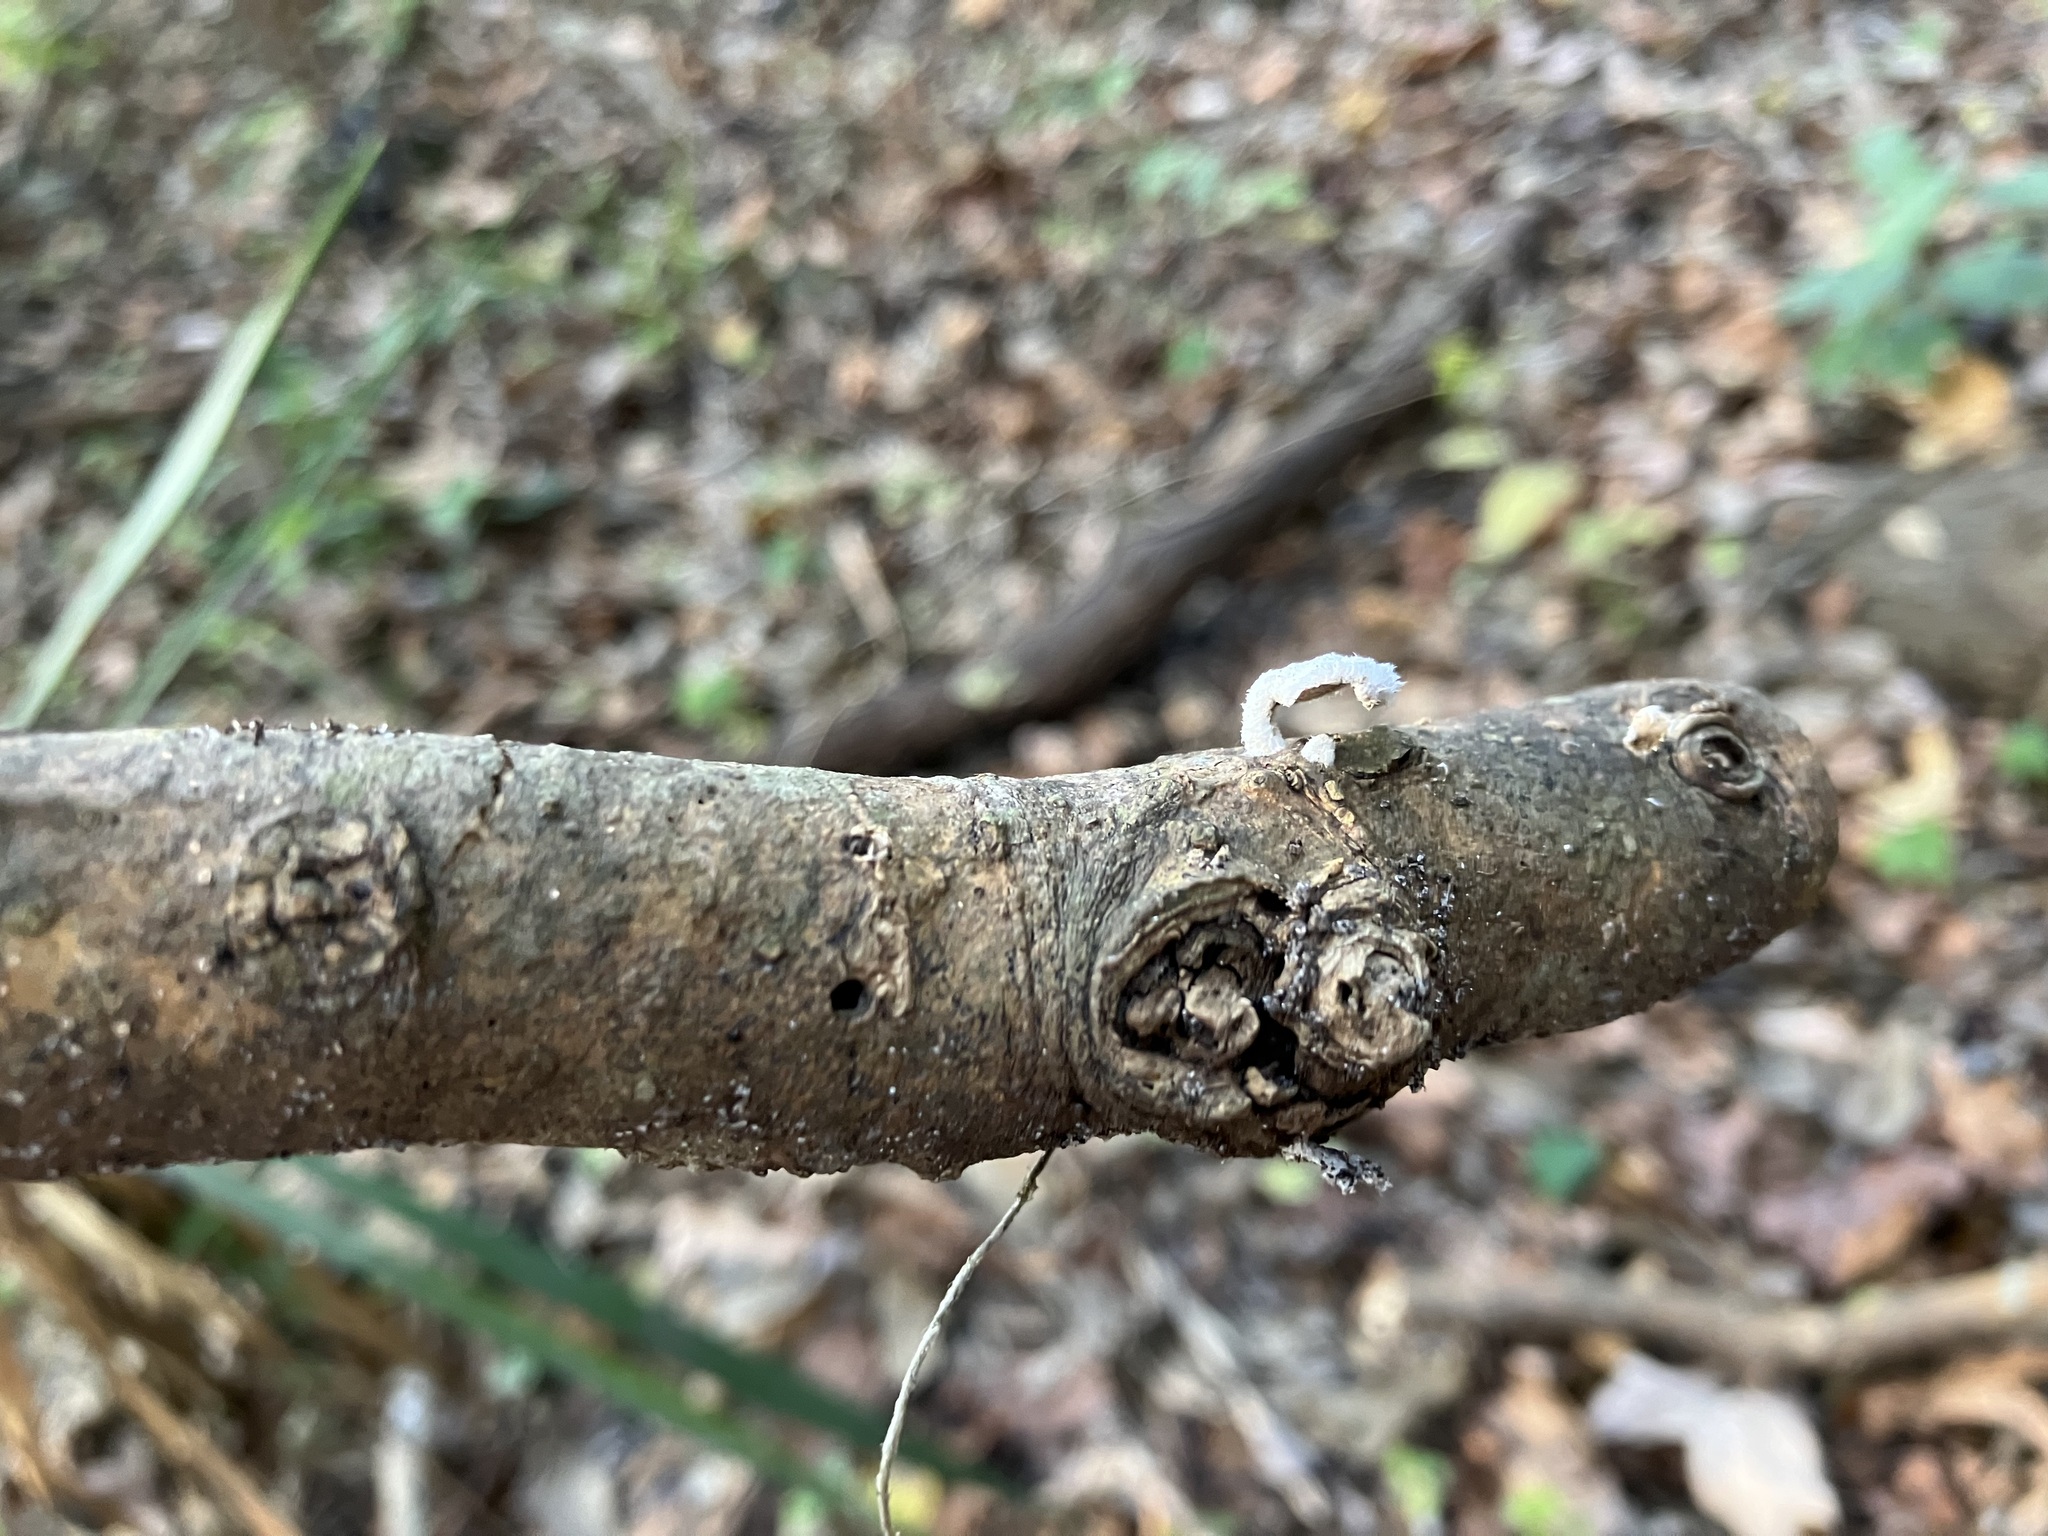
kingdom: Fungi
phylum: Basidiomycota
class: Agaricomycetes
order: Agaricales
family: Schizophyllaceae
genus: Schizophyllum
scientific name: Schizophyllum commune
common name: Common porecrust
